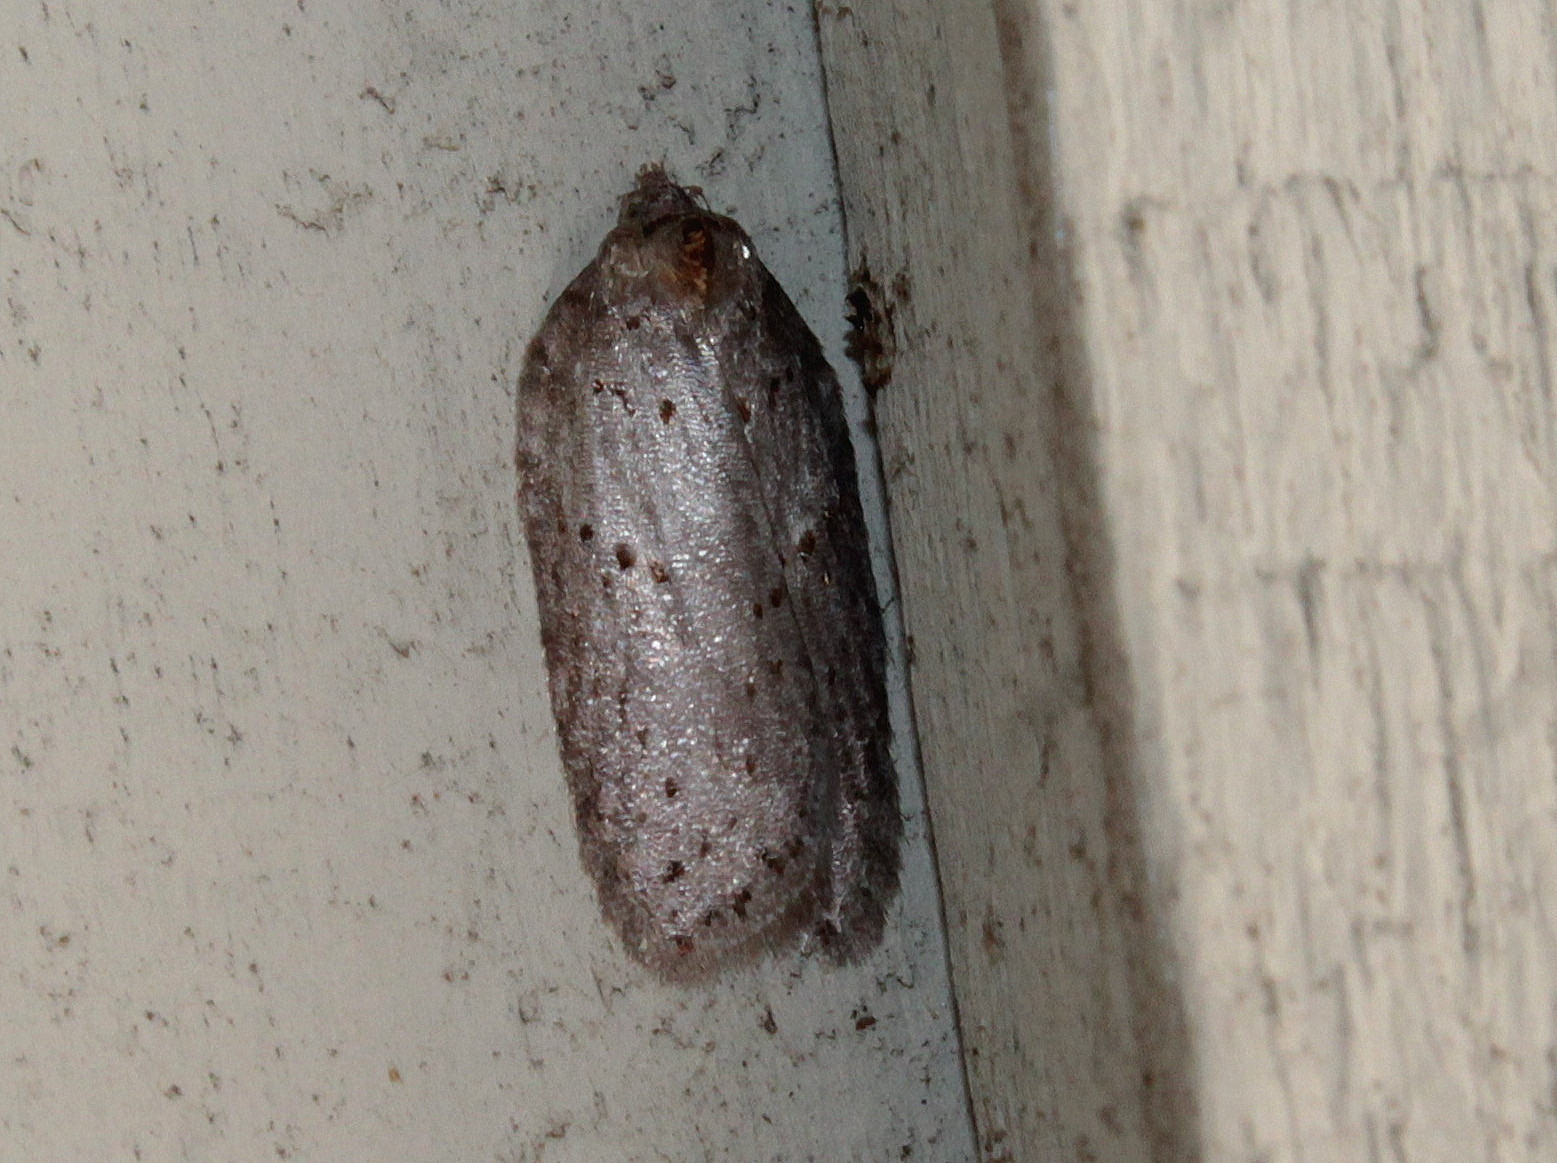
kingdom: Animalia
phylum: Arthropoda
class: Insecta
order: Lepidoptera
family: Tortricidae
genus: Acleris
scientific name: Acleris busckana
